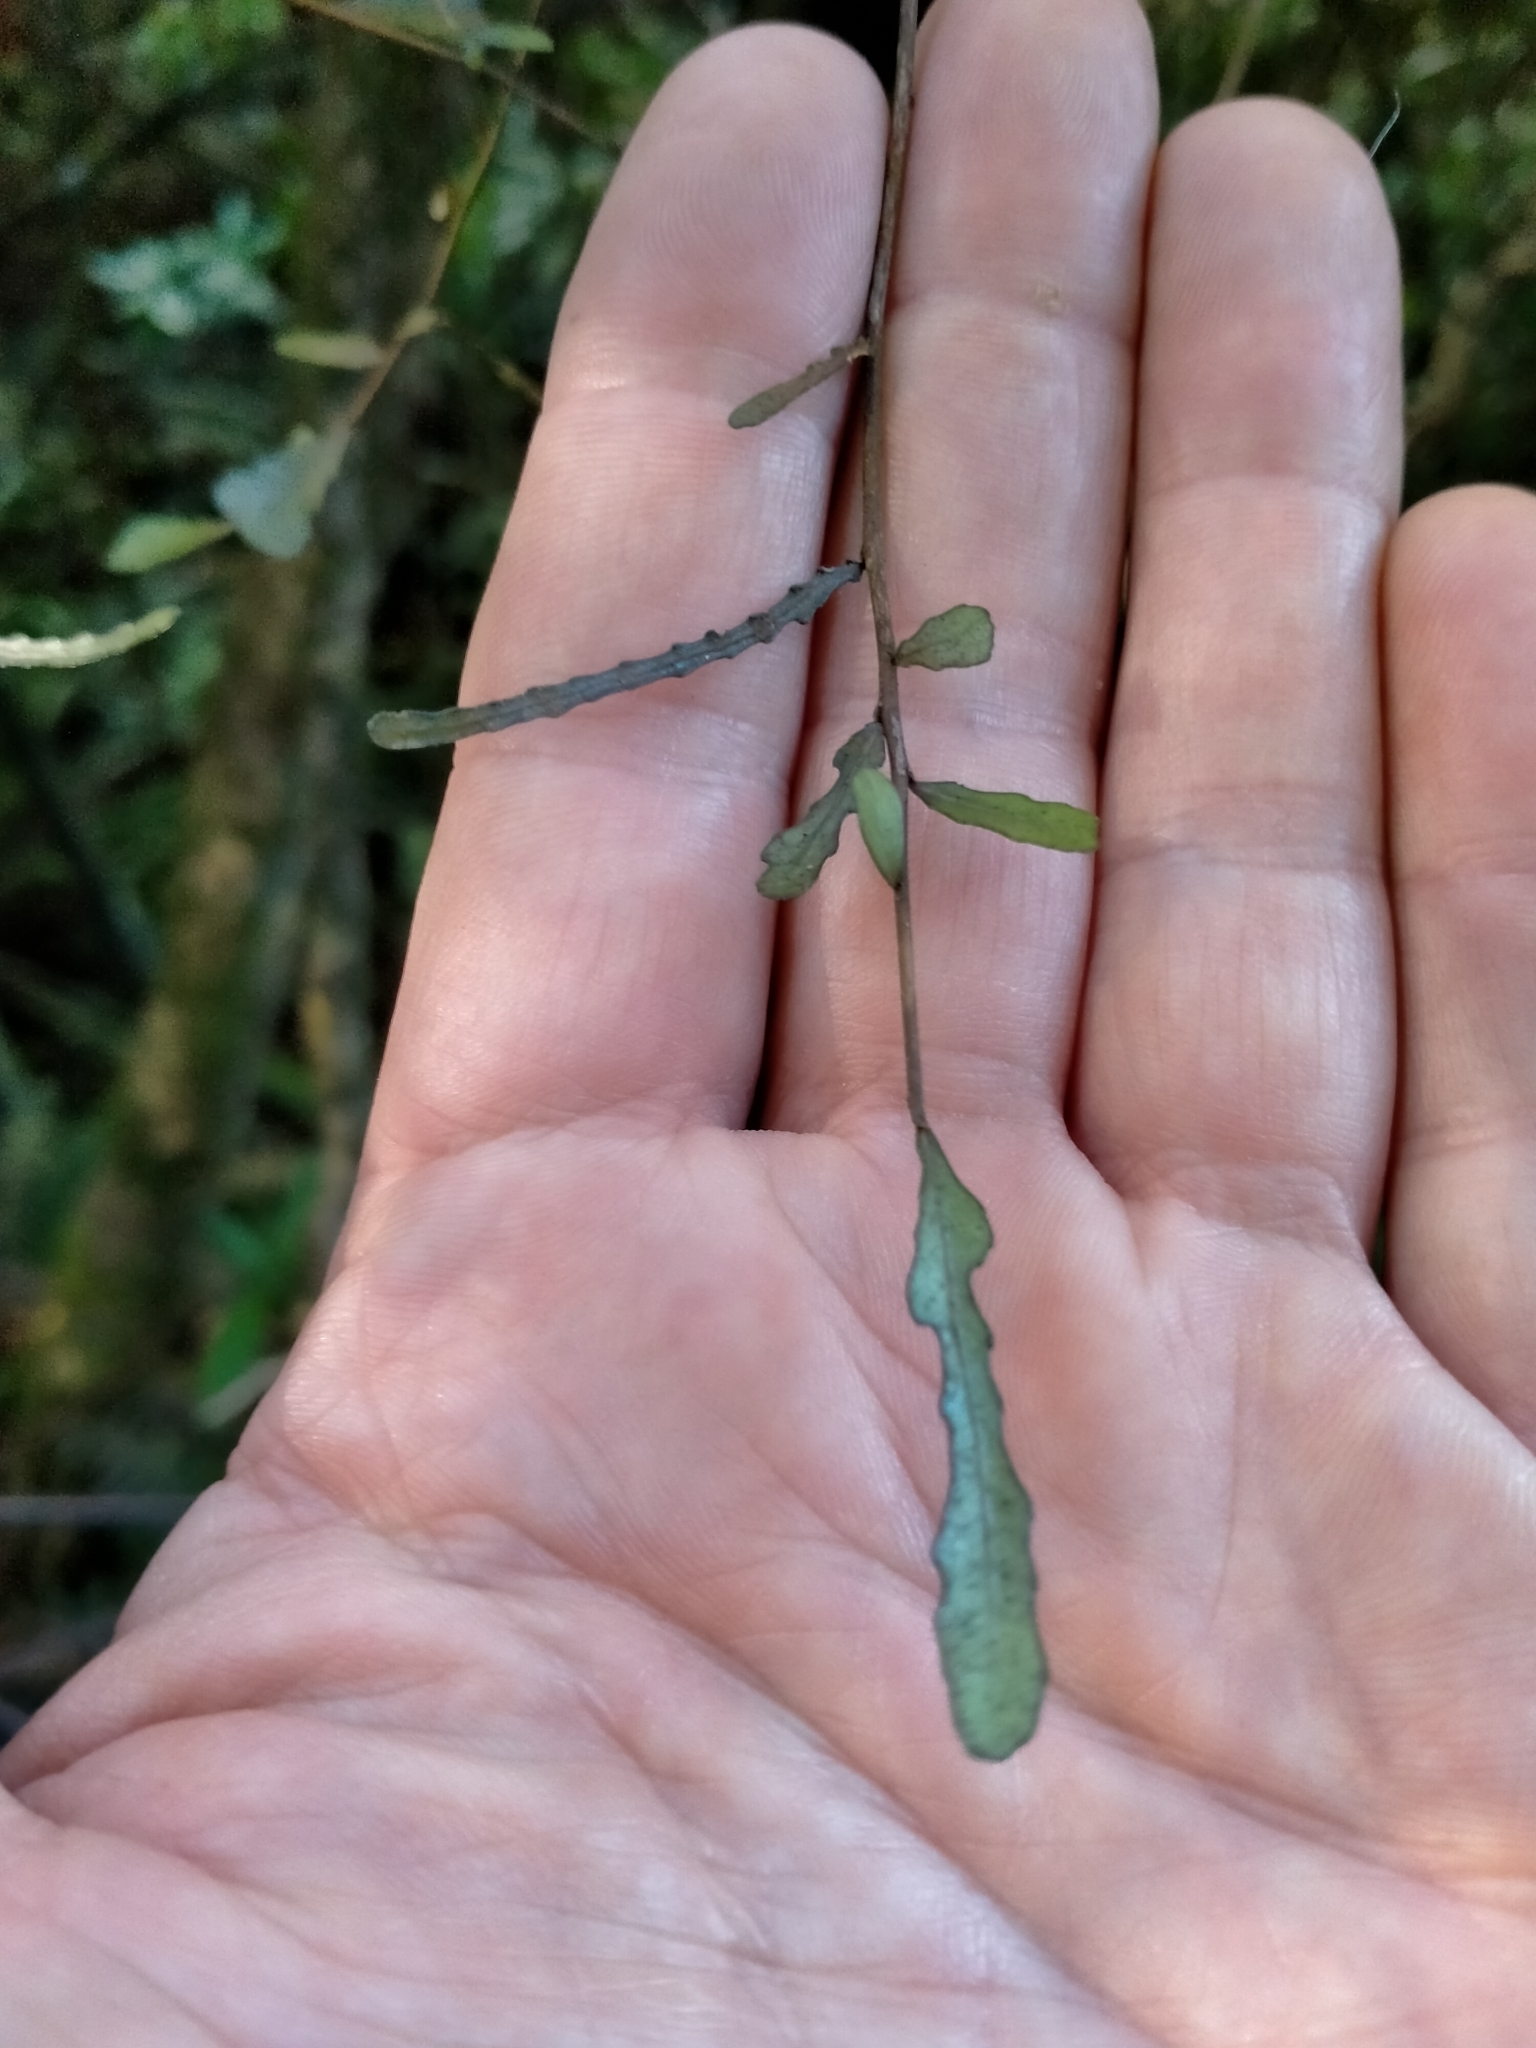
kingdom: Plantae
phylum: Tracheophyta
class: Magnoliopsida
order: Oxalidales
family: Elaeocarpaceae
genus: Elaeocarpus
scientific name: Elaeocarpus hookerianus
